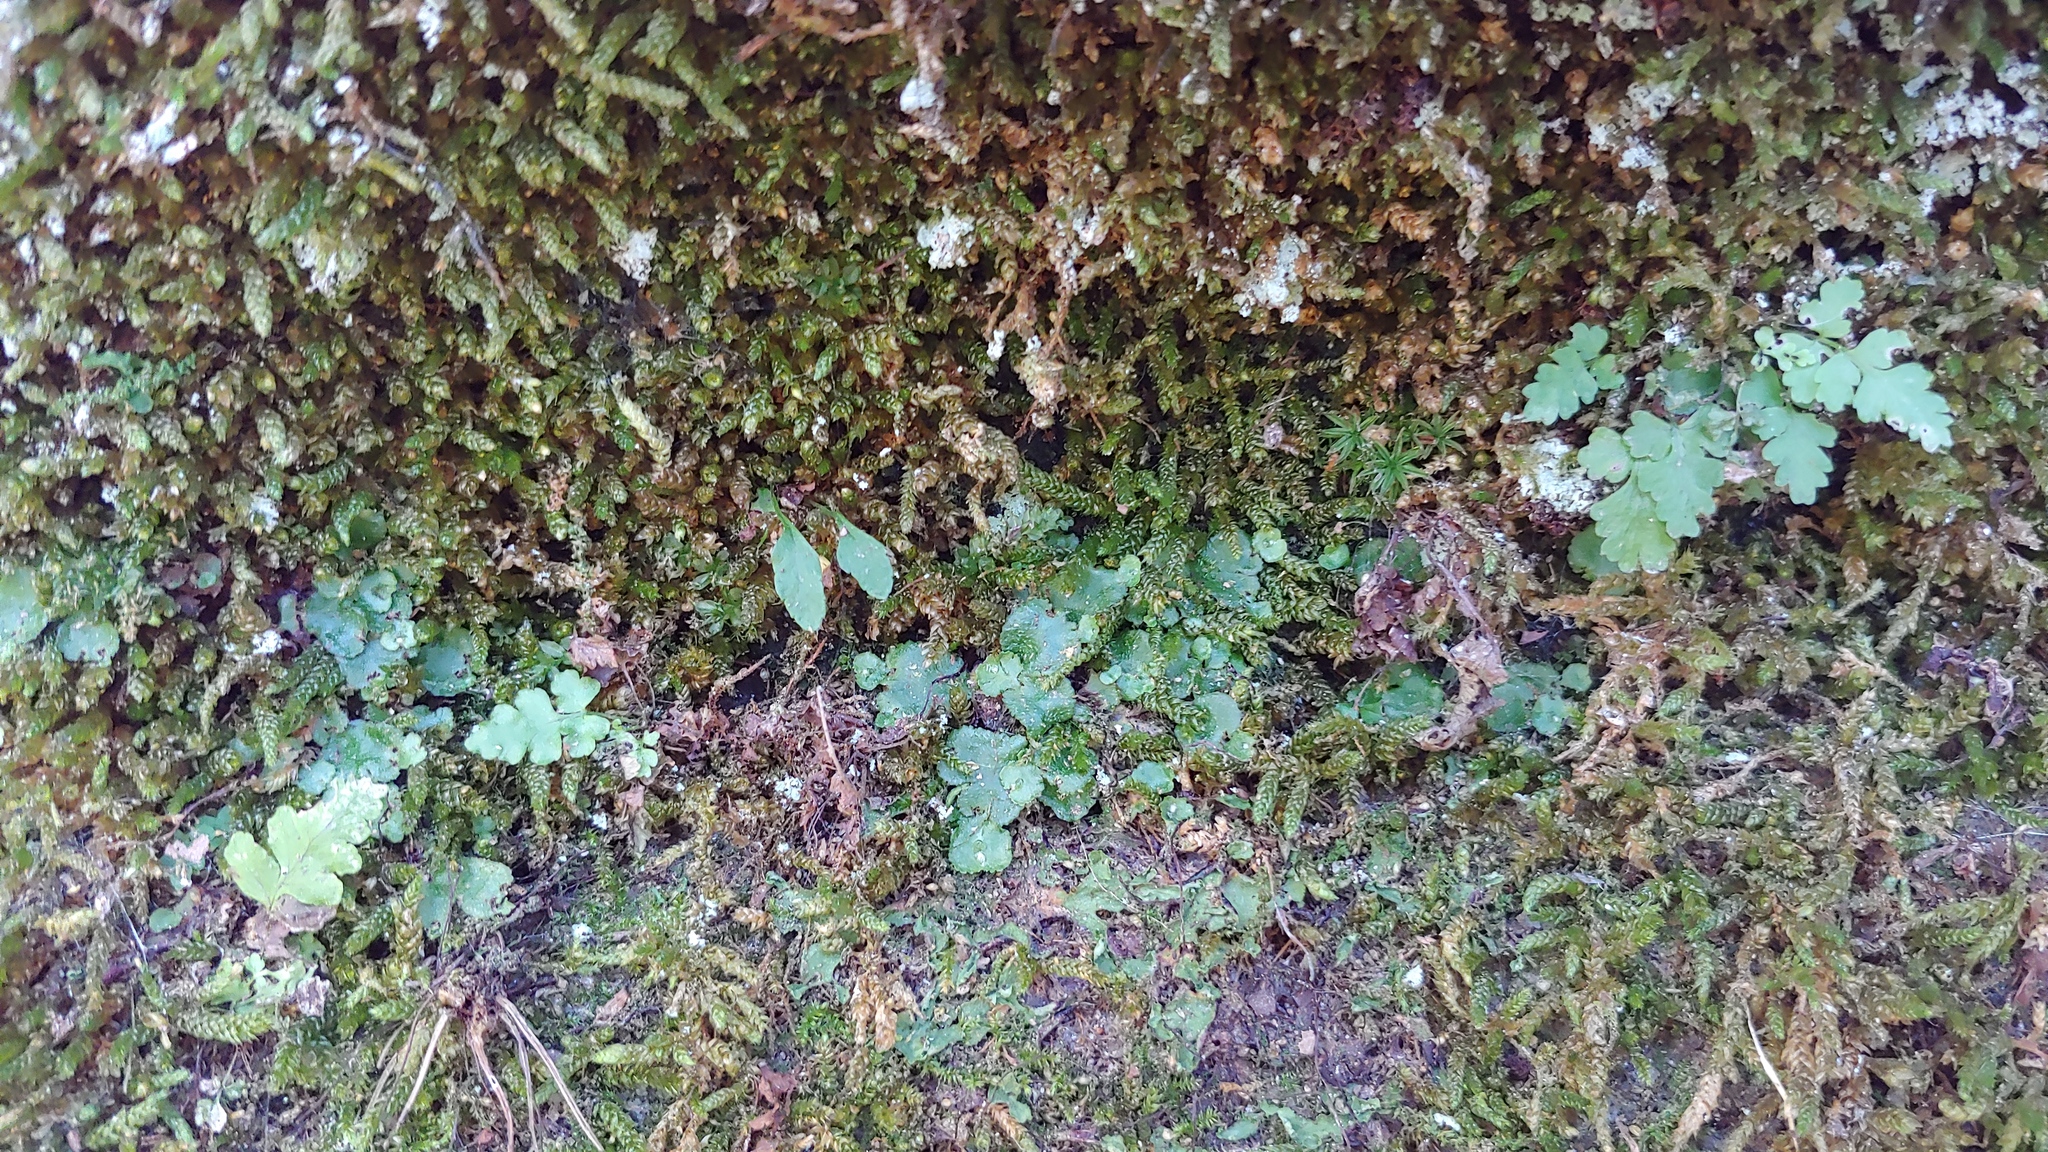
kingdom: Plantae
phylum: Marchantiophyta
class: Marchantiopsida
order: Marchantiales
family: Aytoniaceae
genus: Reboulia
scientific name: Reboulia hemisphaerica
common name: Purple-margined liverwort
